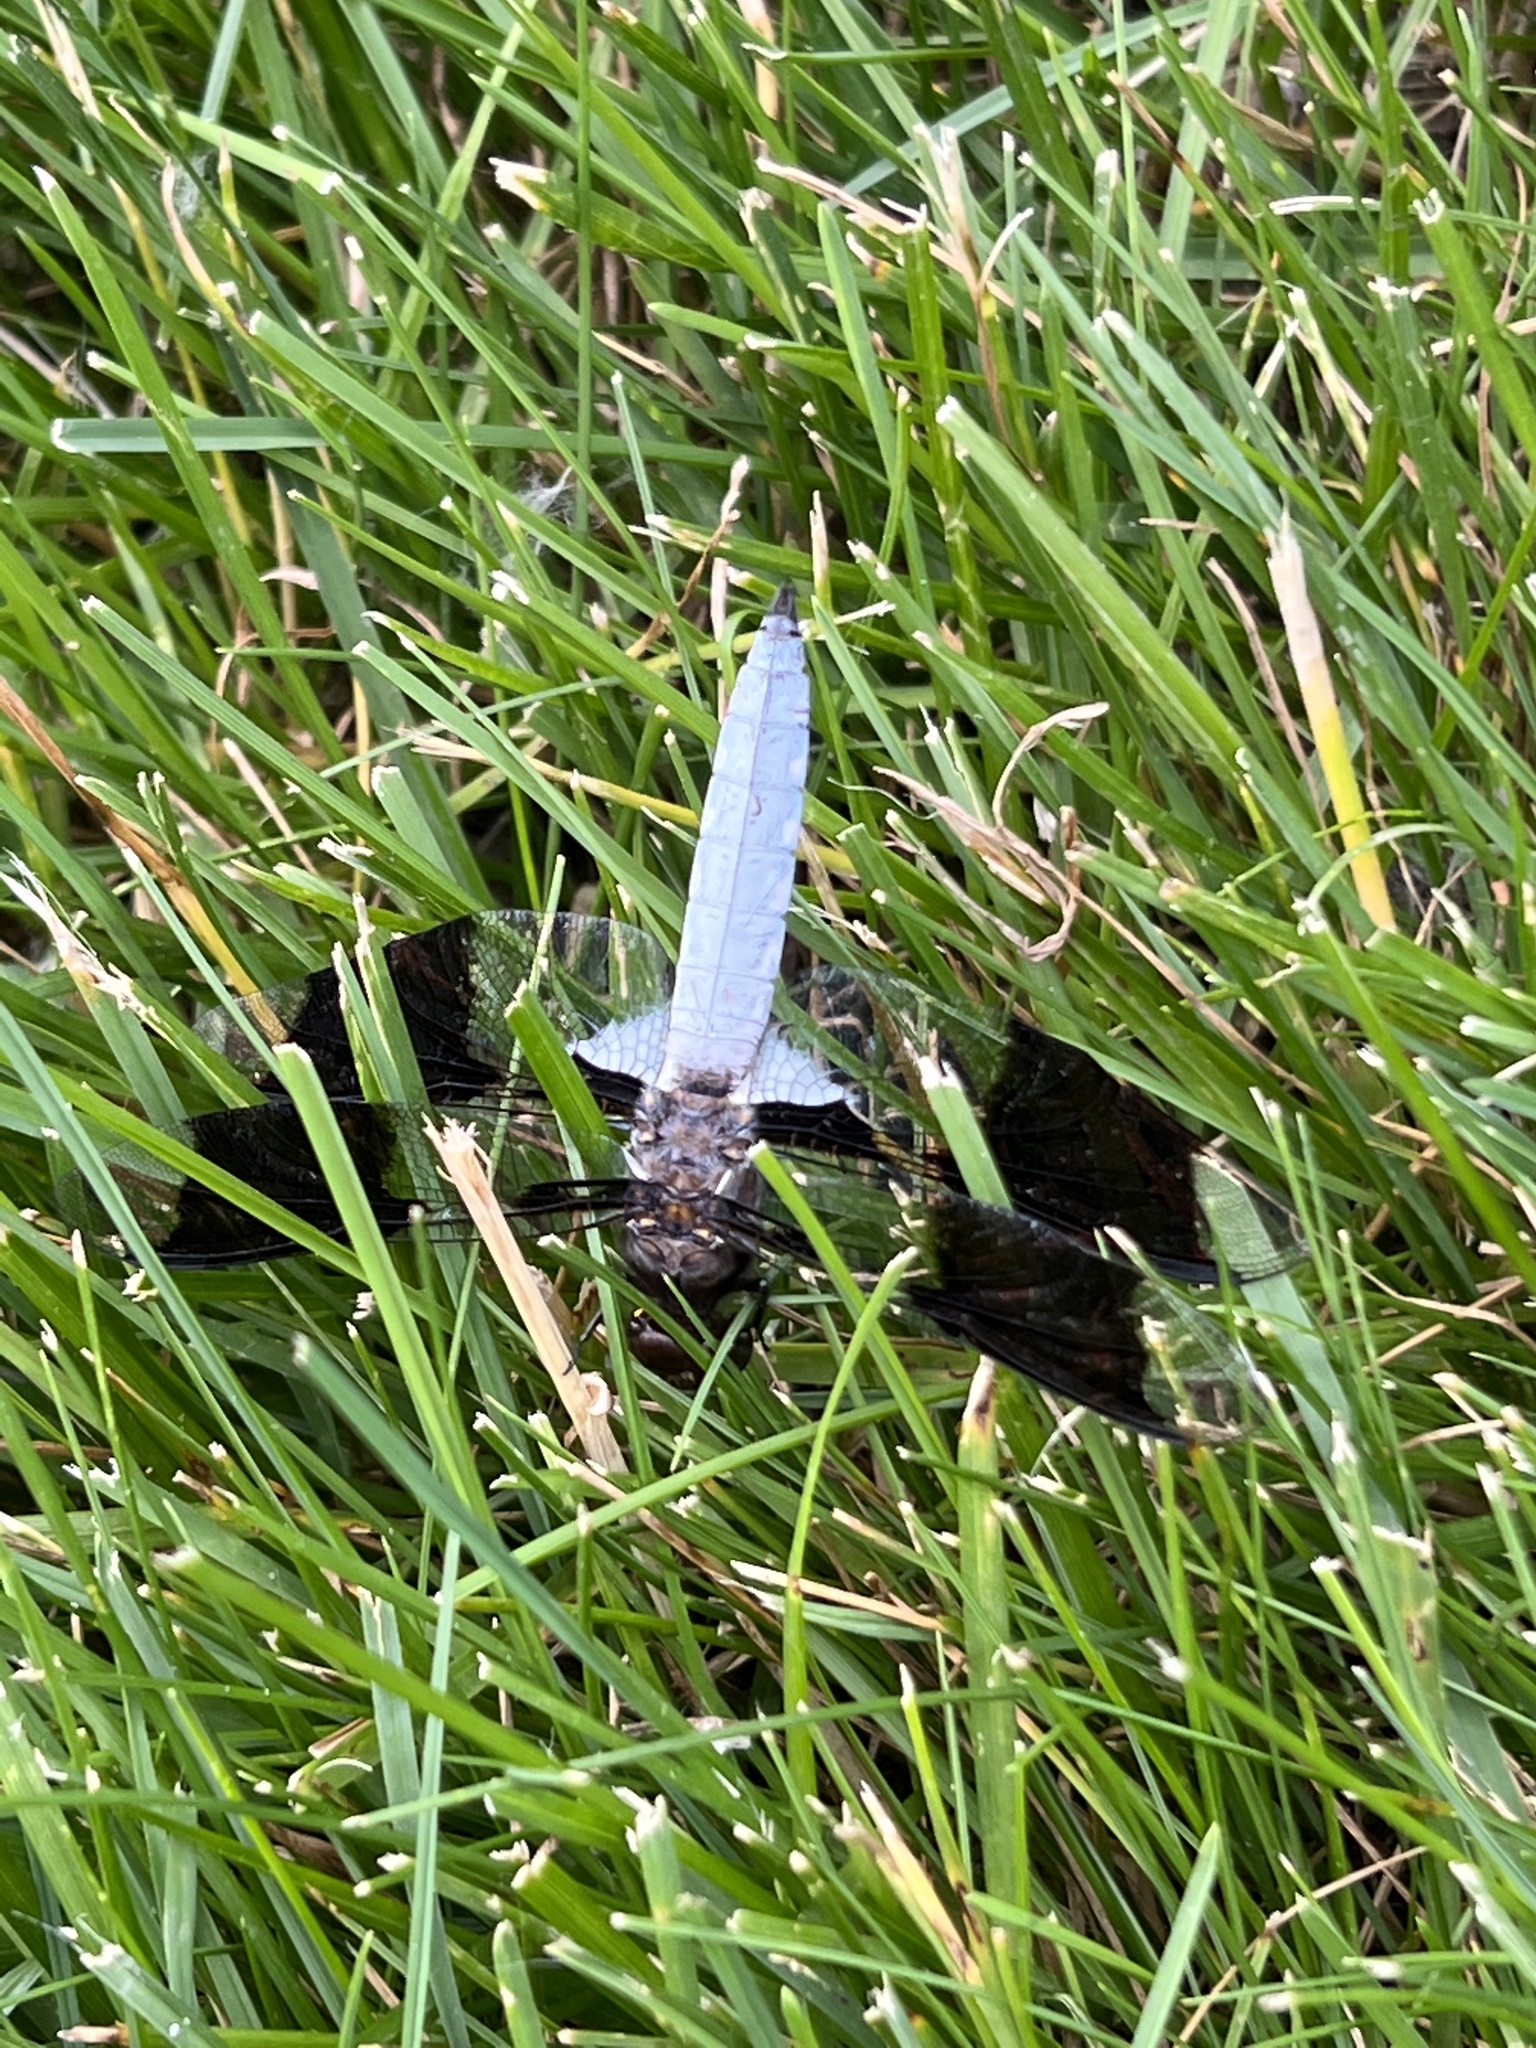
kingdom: Animalia
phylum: Arthropoda
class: Insecta
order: Odonata
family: Libellulidae
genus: Plathemis
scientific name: Plathemis lydia
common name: Common whitetail
